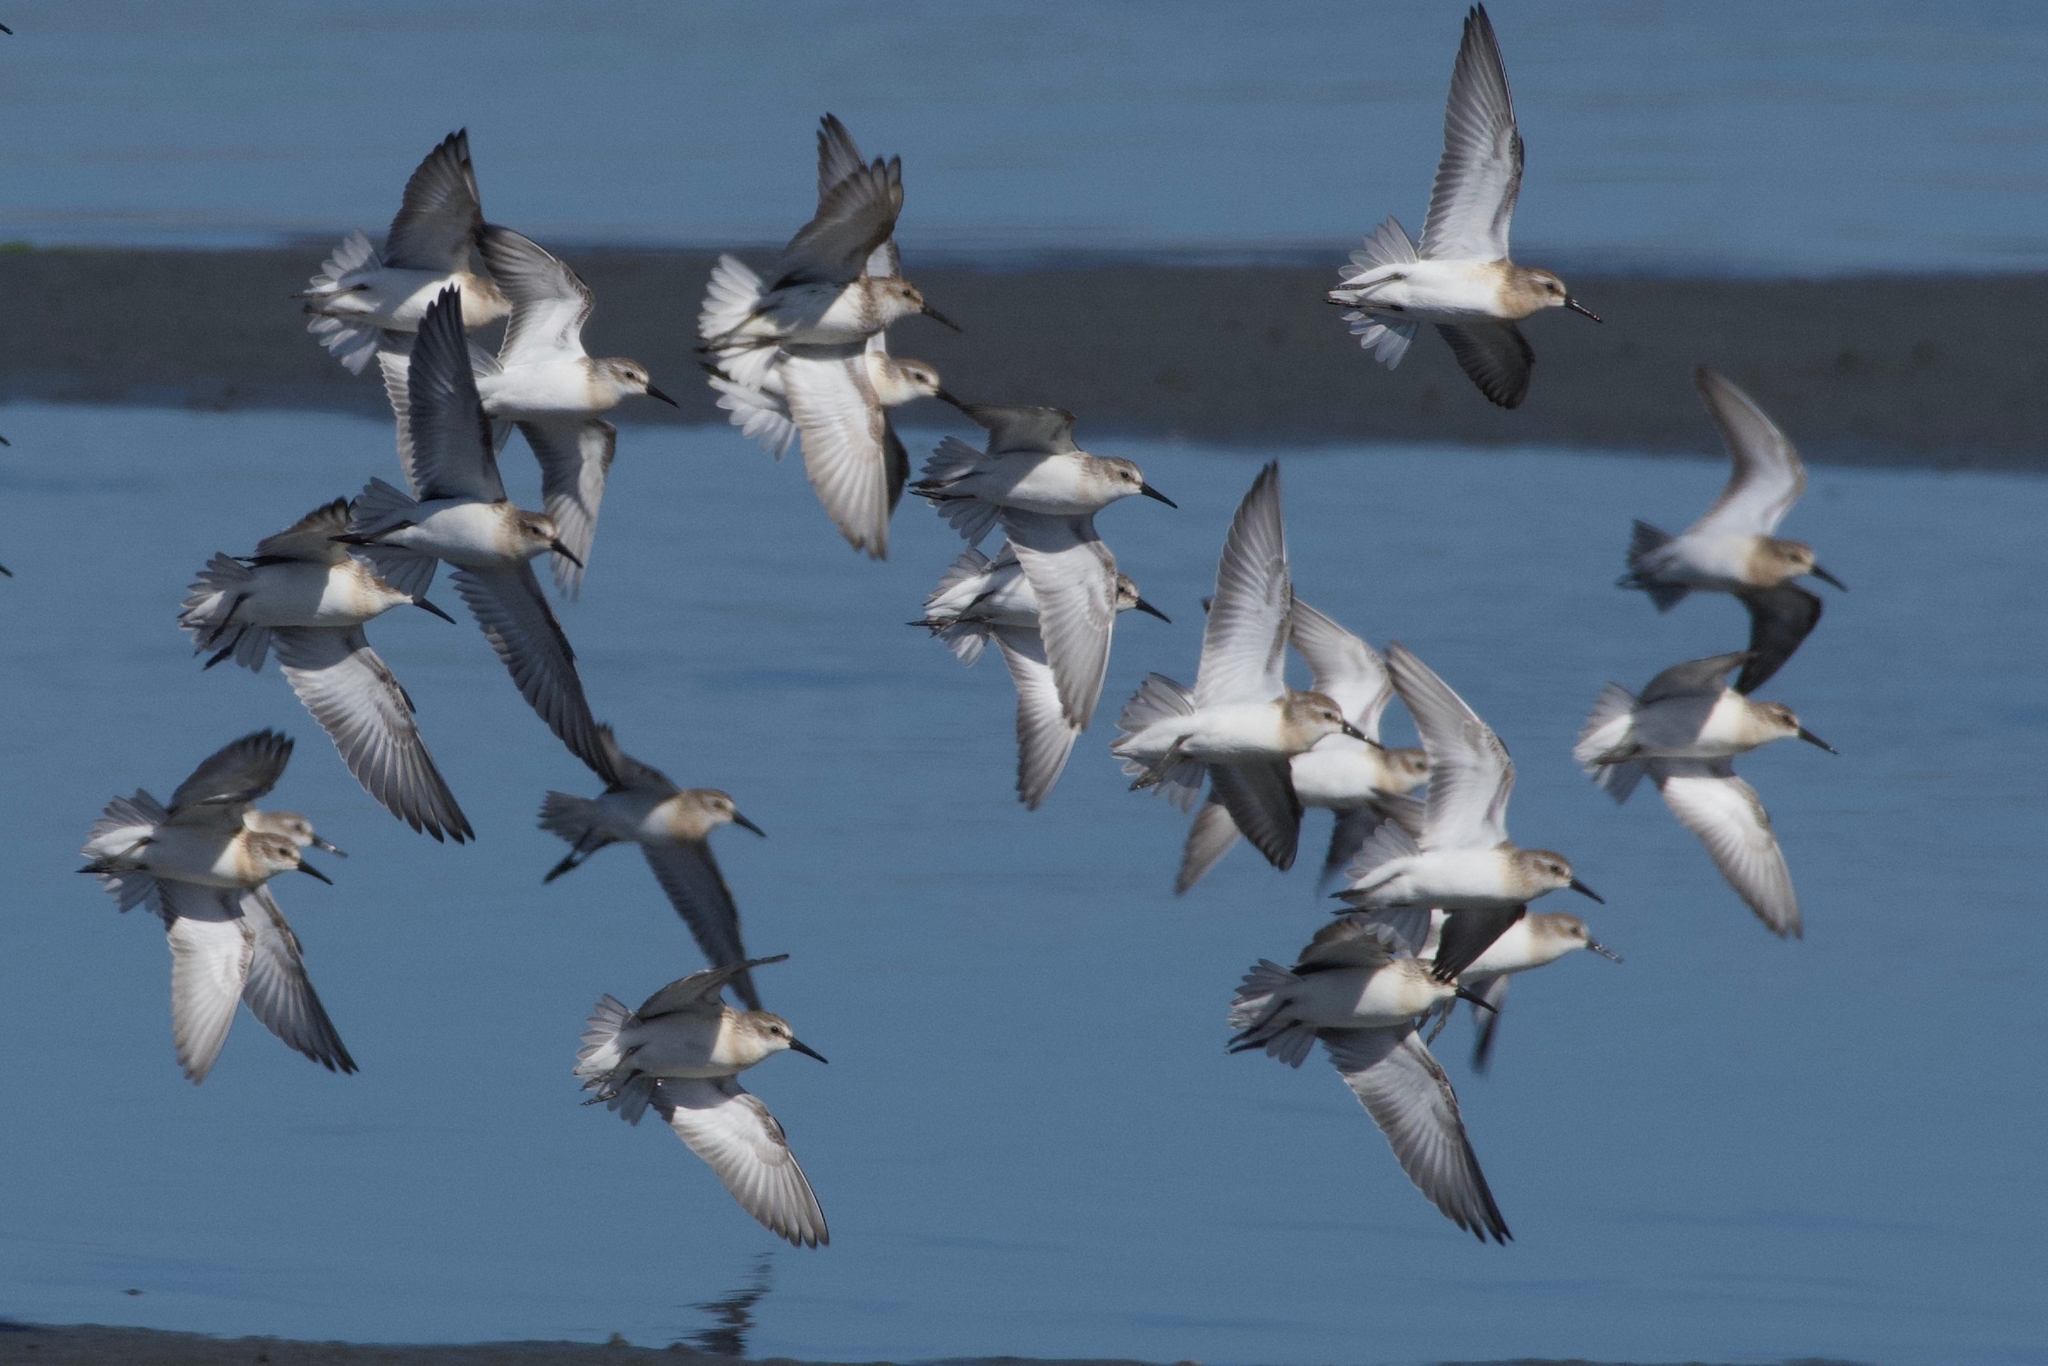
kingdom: Animalia
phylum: Chordata
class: Aves
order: Charadriiformes
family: Scolopacidae
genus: Calidris
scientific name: Calidris mauri
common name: Western sandpiper
